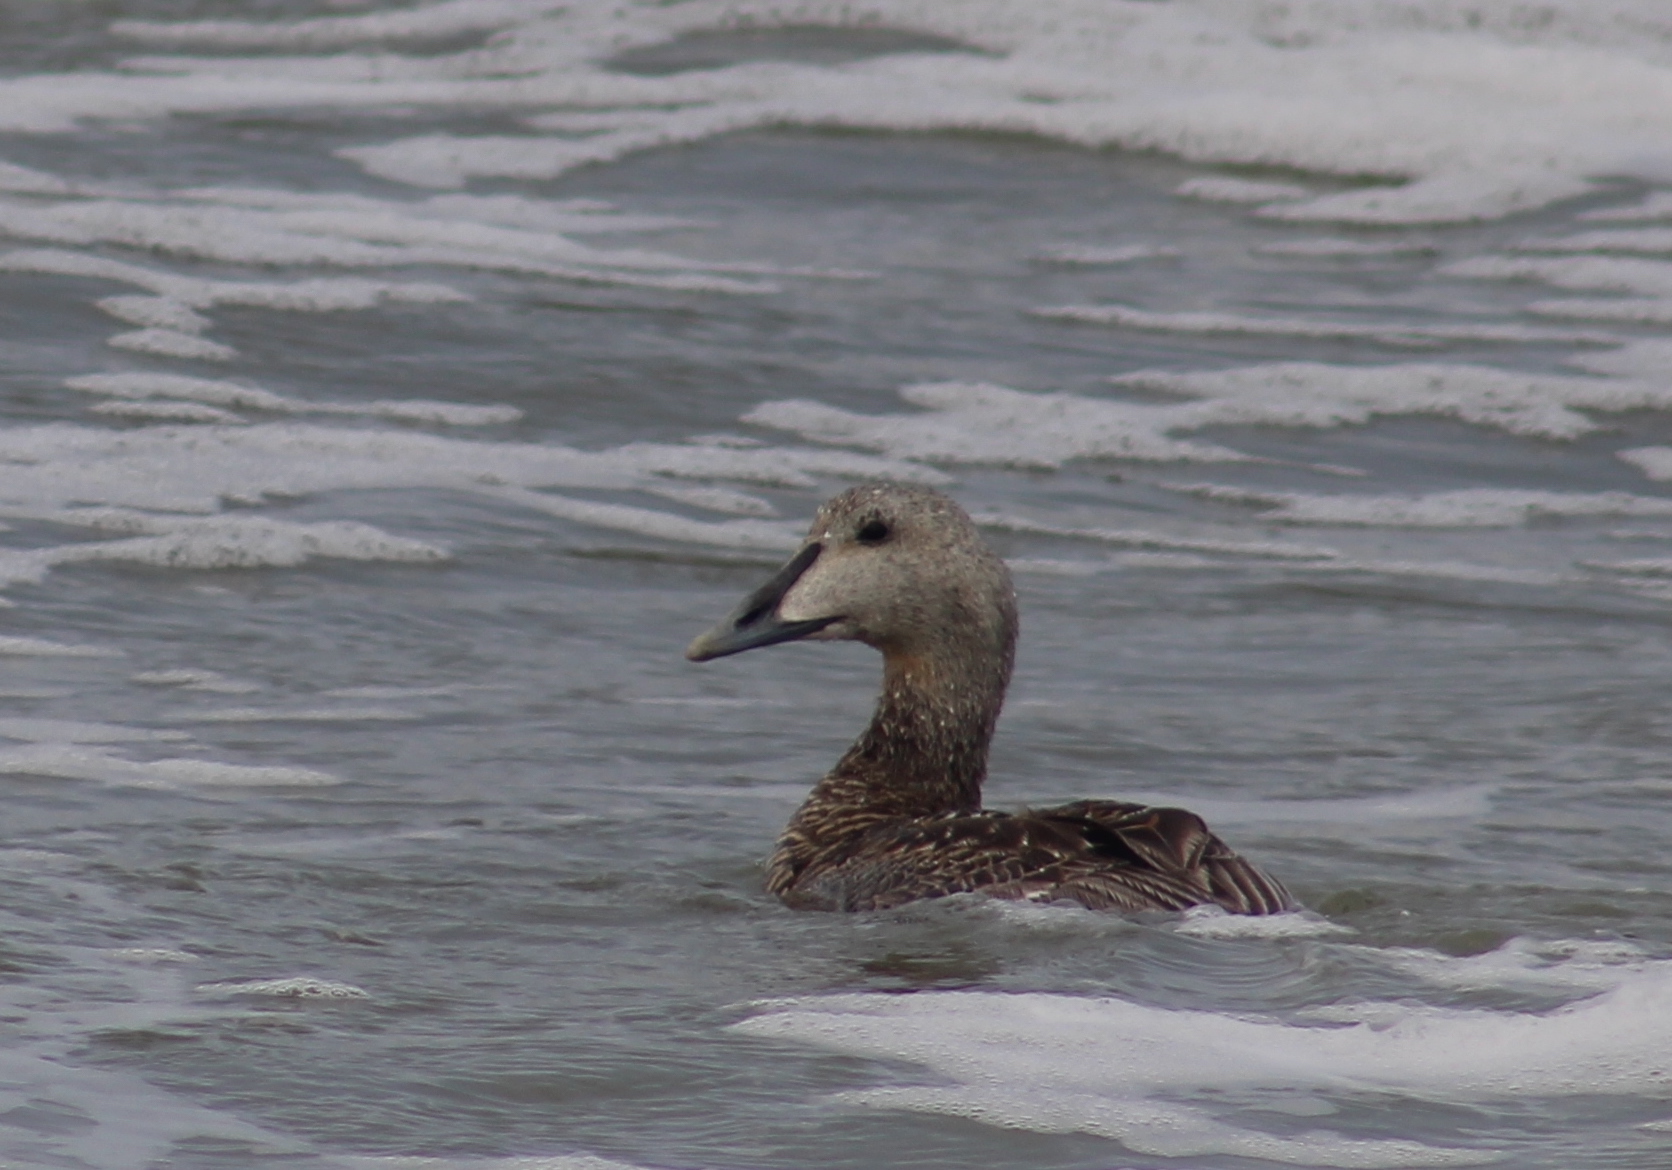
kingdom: Animalia
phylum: Chordata
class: Aves
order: Anseriformes
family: Anatidae
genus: Somateria
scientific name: Somateria mollissima
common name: Common eider
